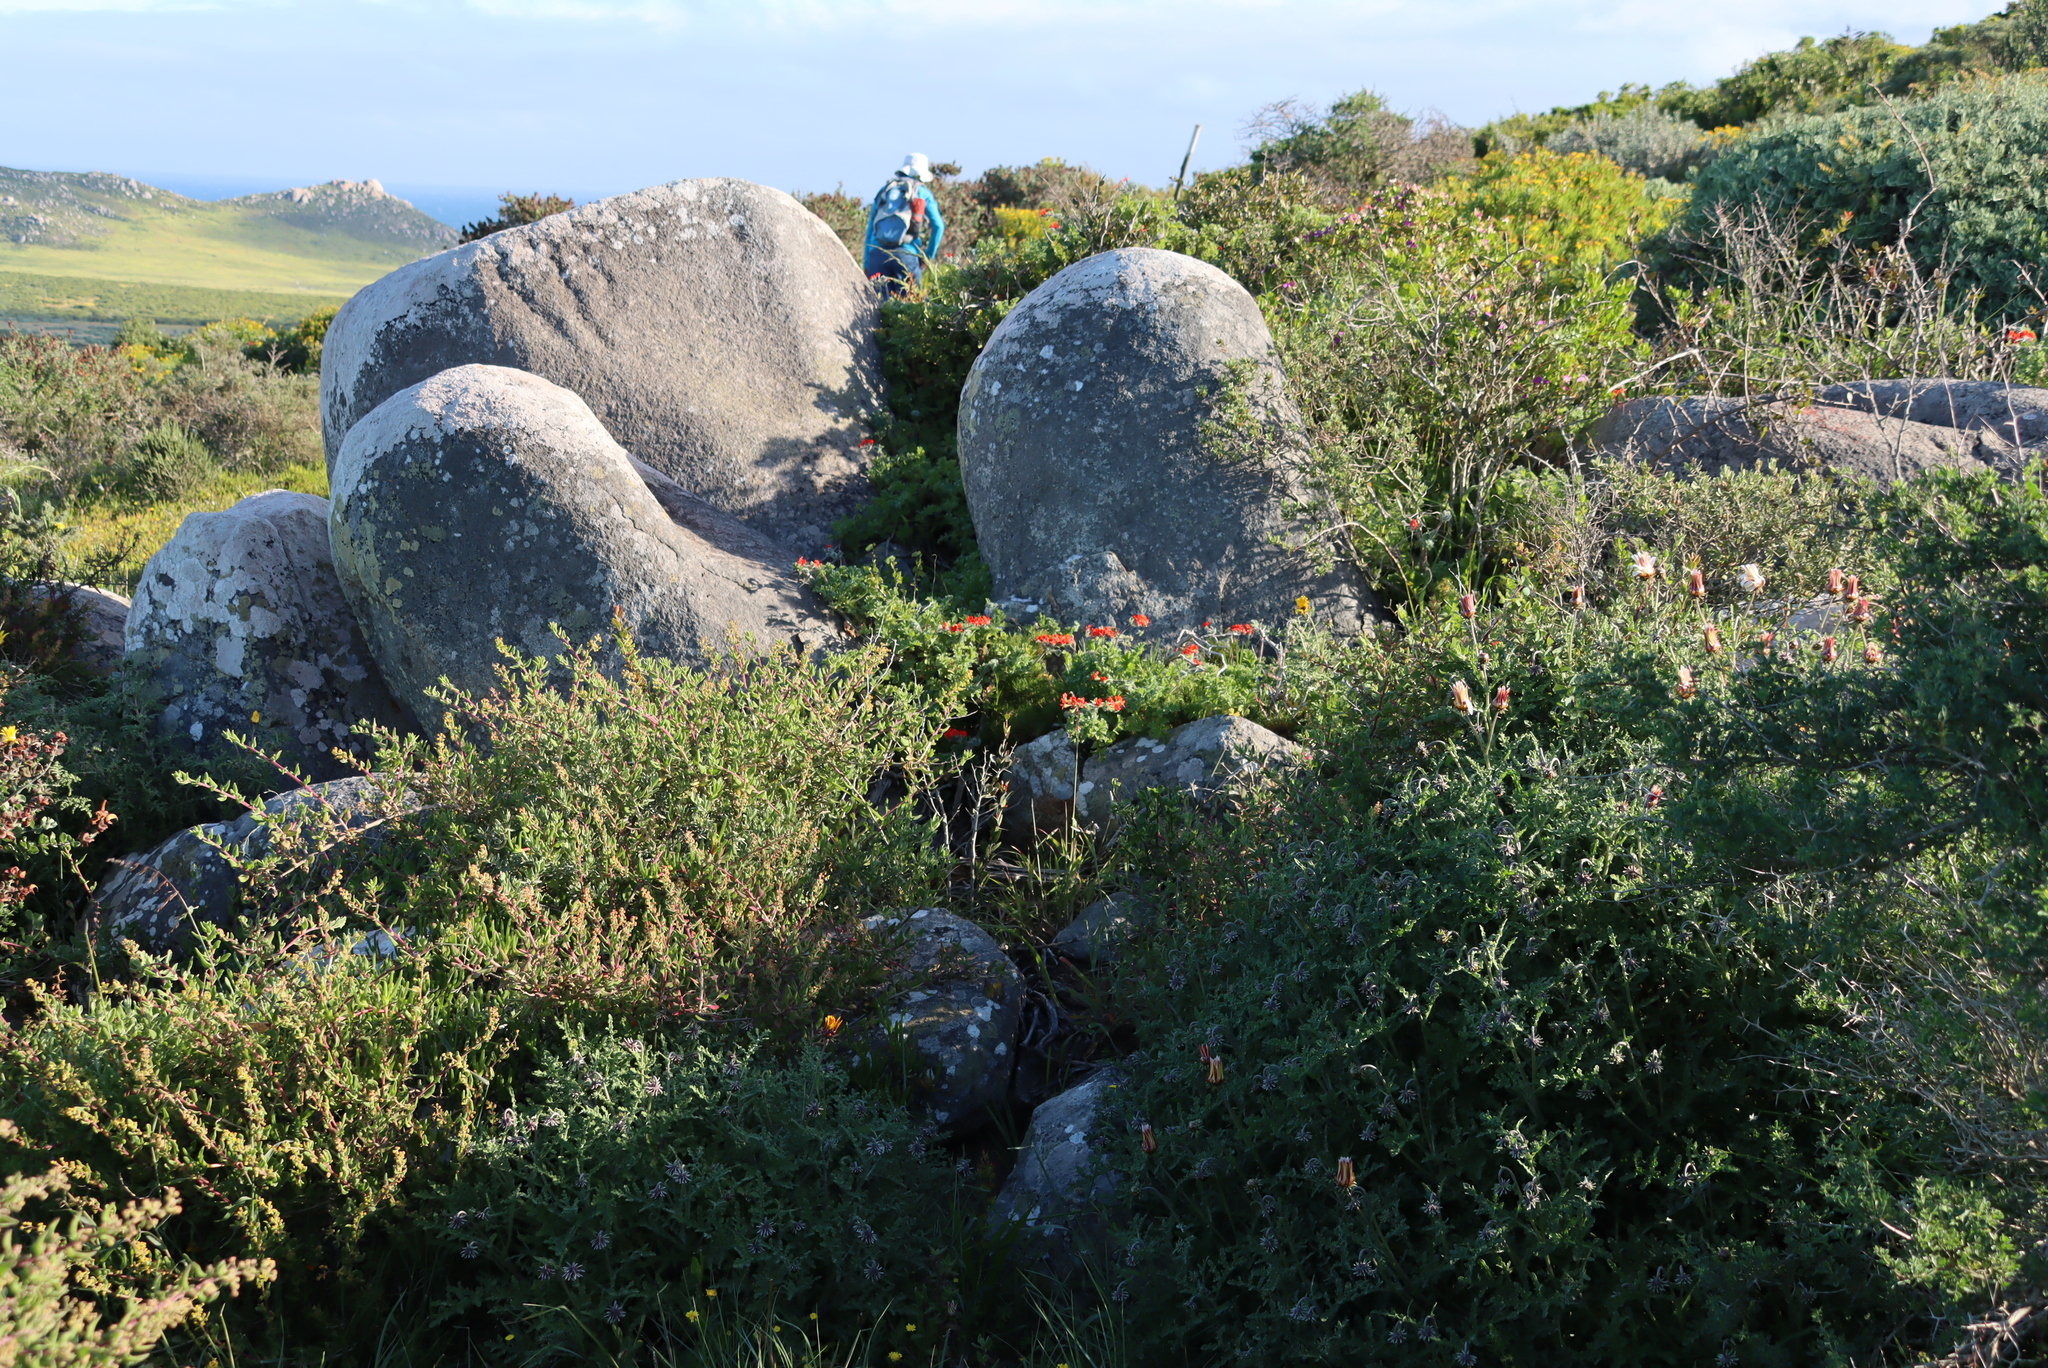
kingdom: Plantae
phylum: Tracheophyta
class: Magnoliopsida
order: Geraniales
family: Geraniaceae
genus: Pelargonium
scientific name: Pelargonium fulgidum
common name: Celandine-leaf pelargonium
